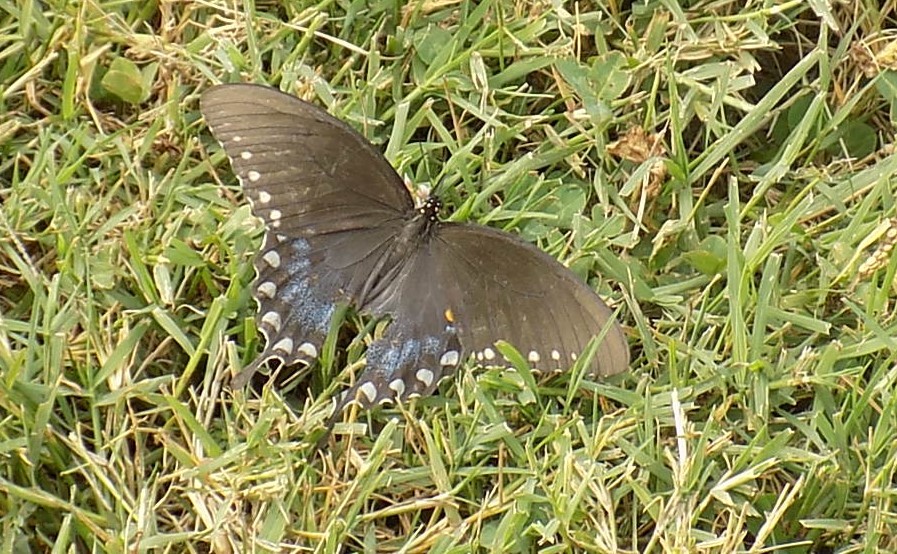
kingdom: Animalia
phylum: Arthropoda
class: Insecta
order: Lepidoptera
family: Papilionidae
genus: Papilio
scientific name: Papilio troilus
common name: Spicebush swallowtail
